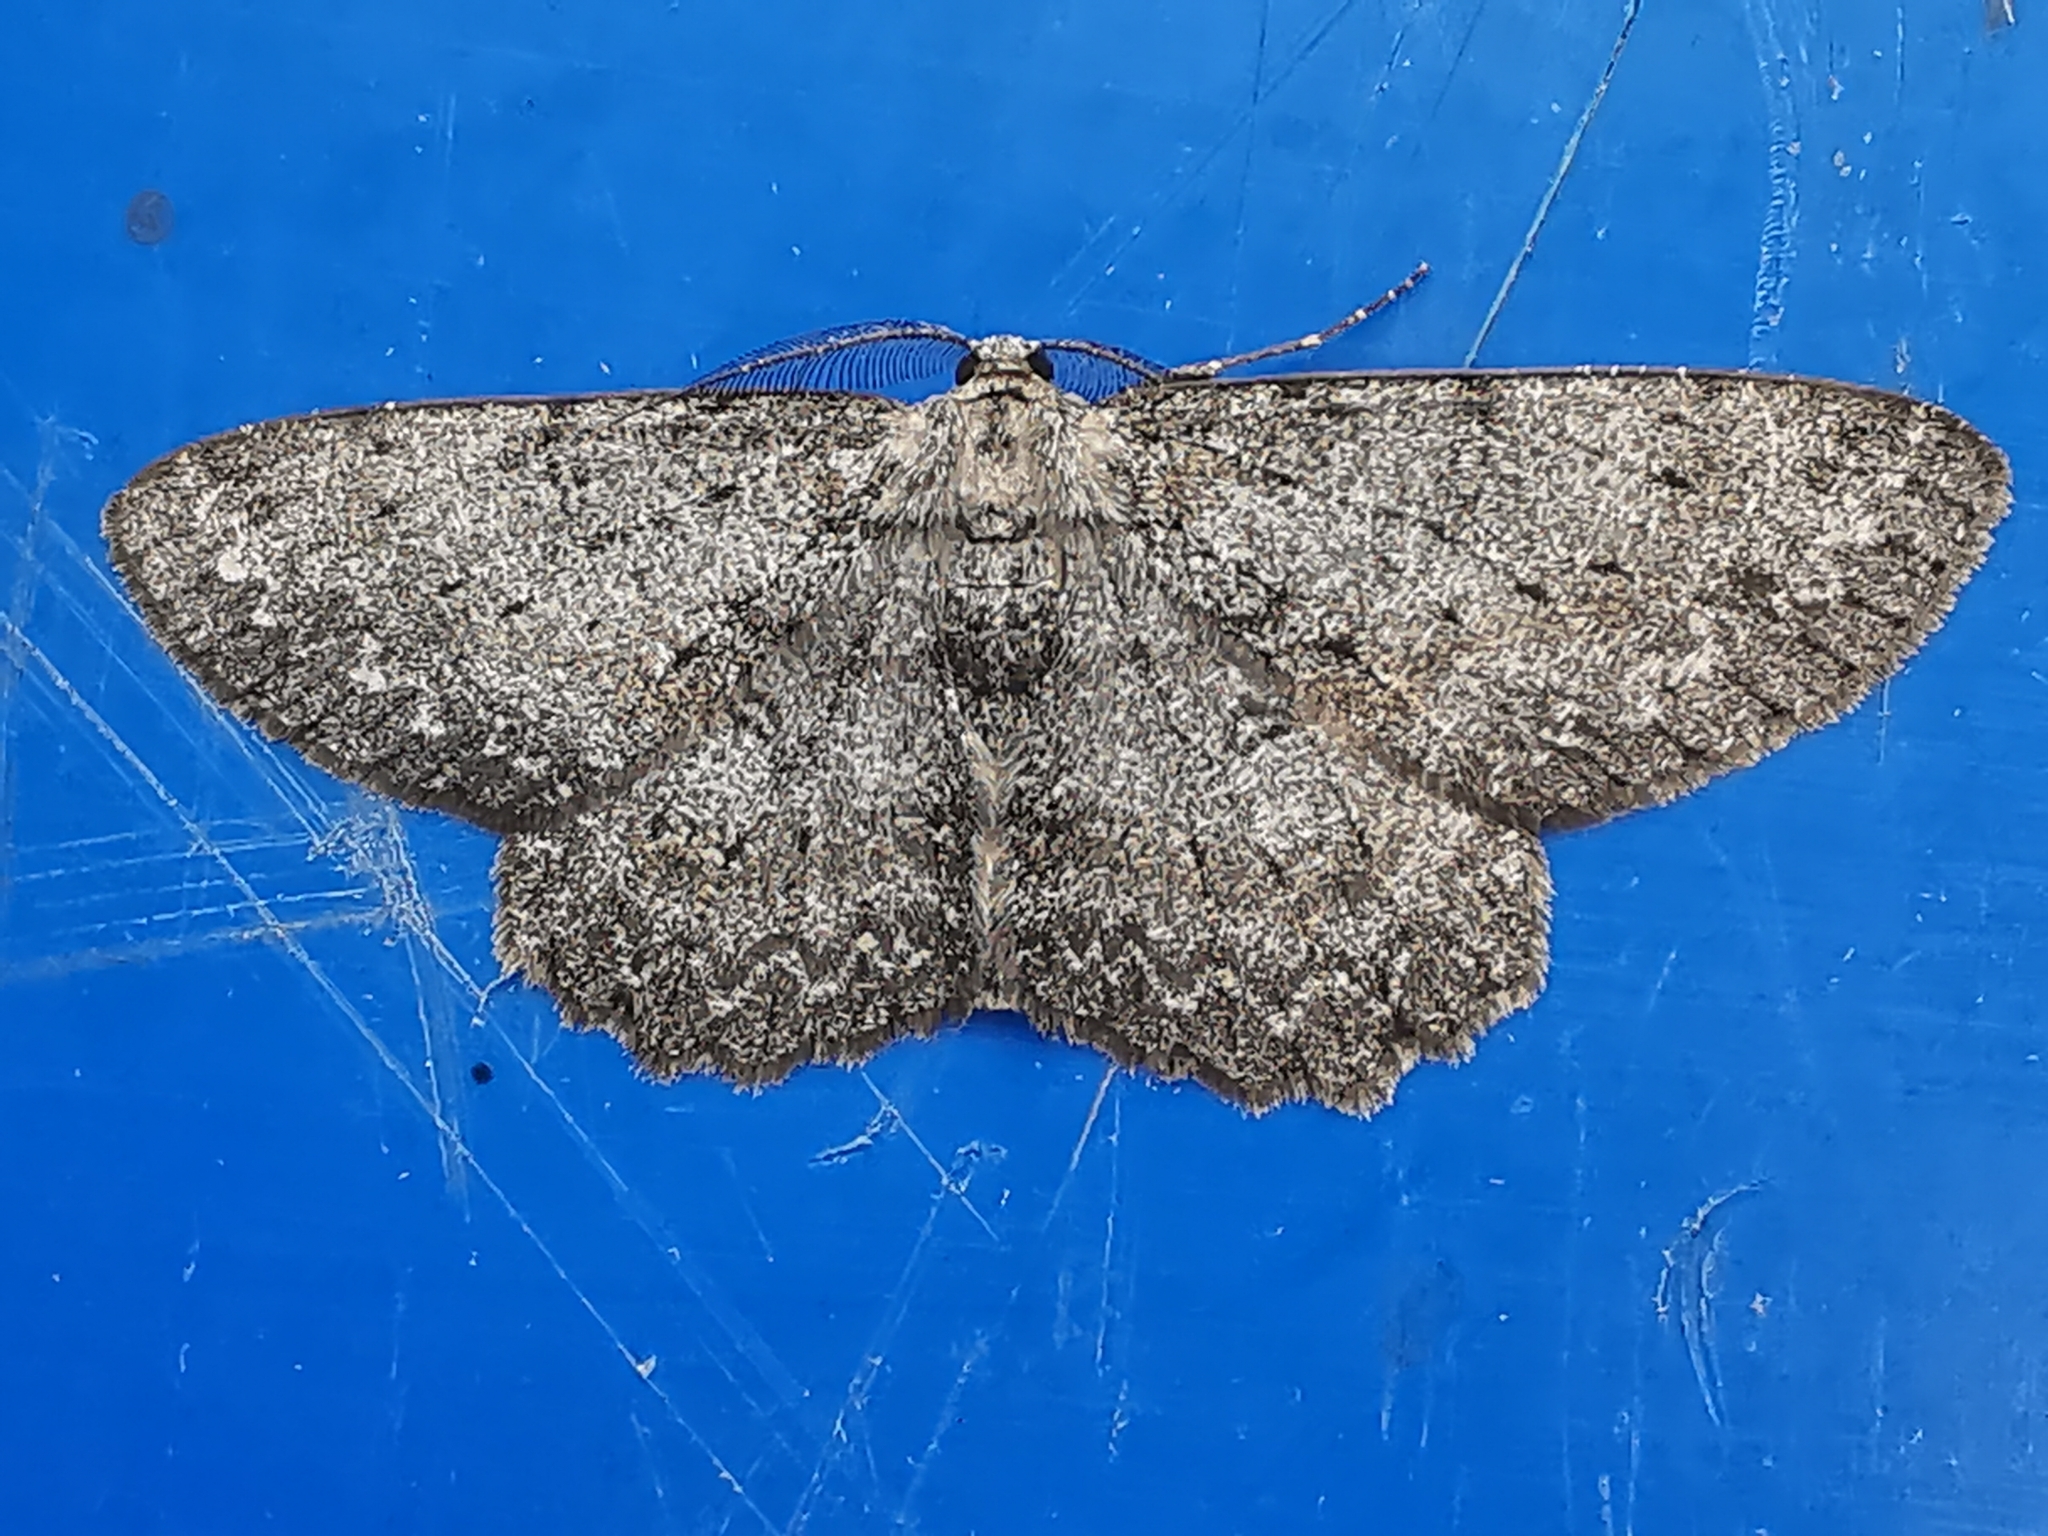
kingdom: Animalia
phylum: Arthropoda
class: Insecta
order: Lepidoptera
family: Geometridae
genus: Hypomecis
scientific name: Hypomecis punctinalis
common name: Pale oak beauty
